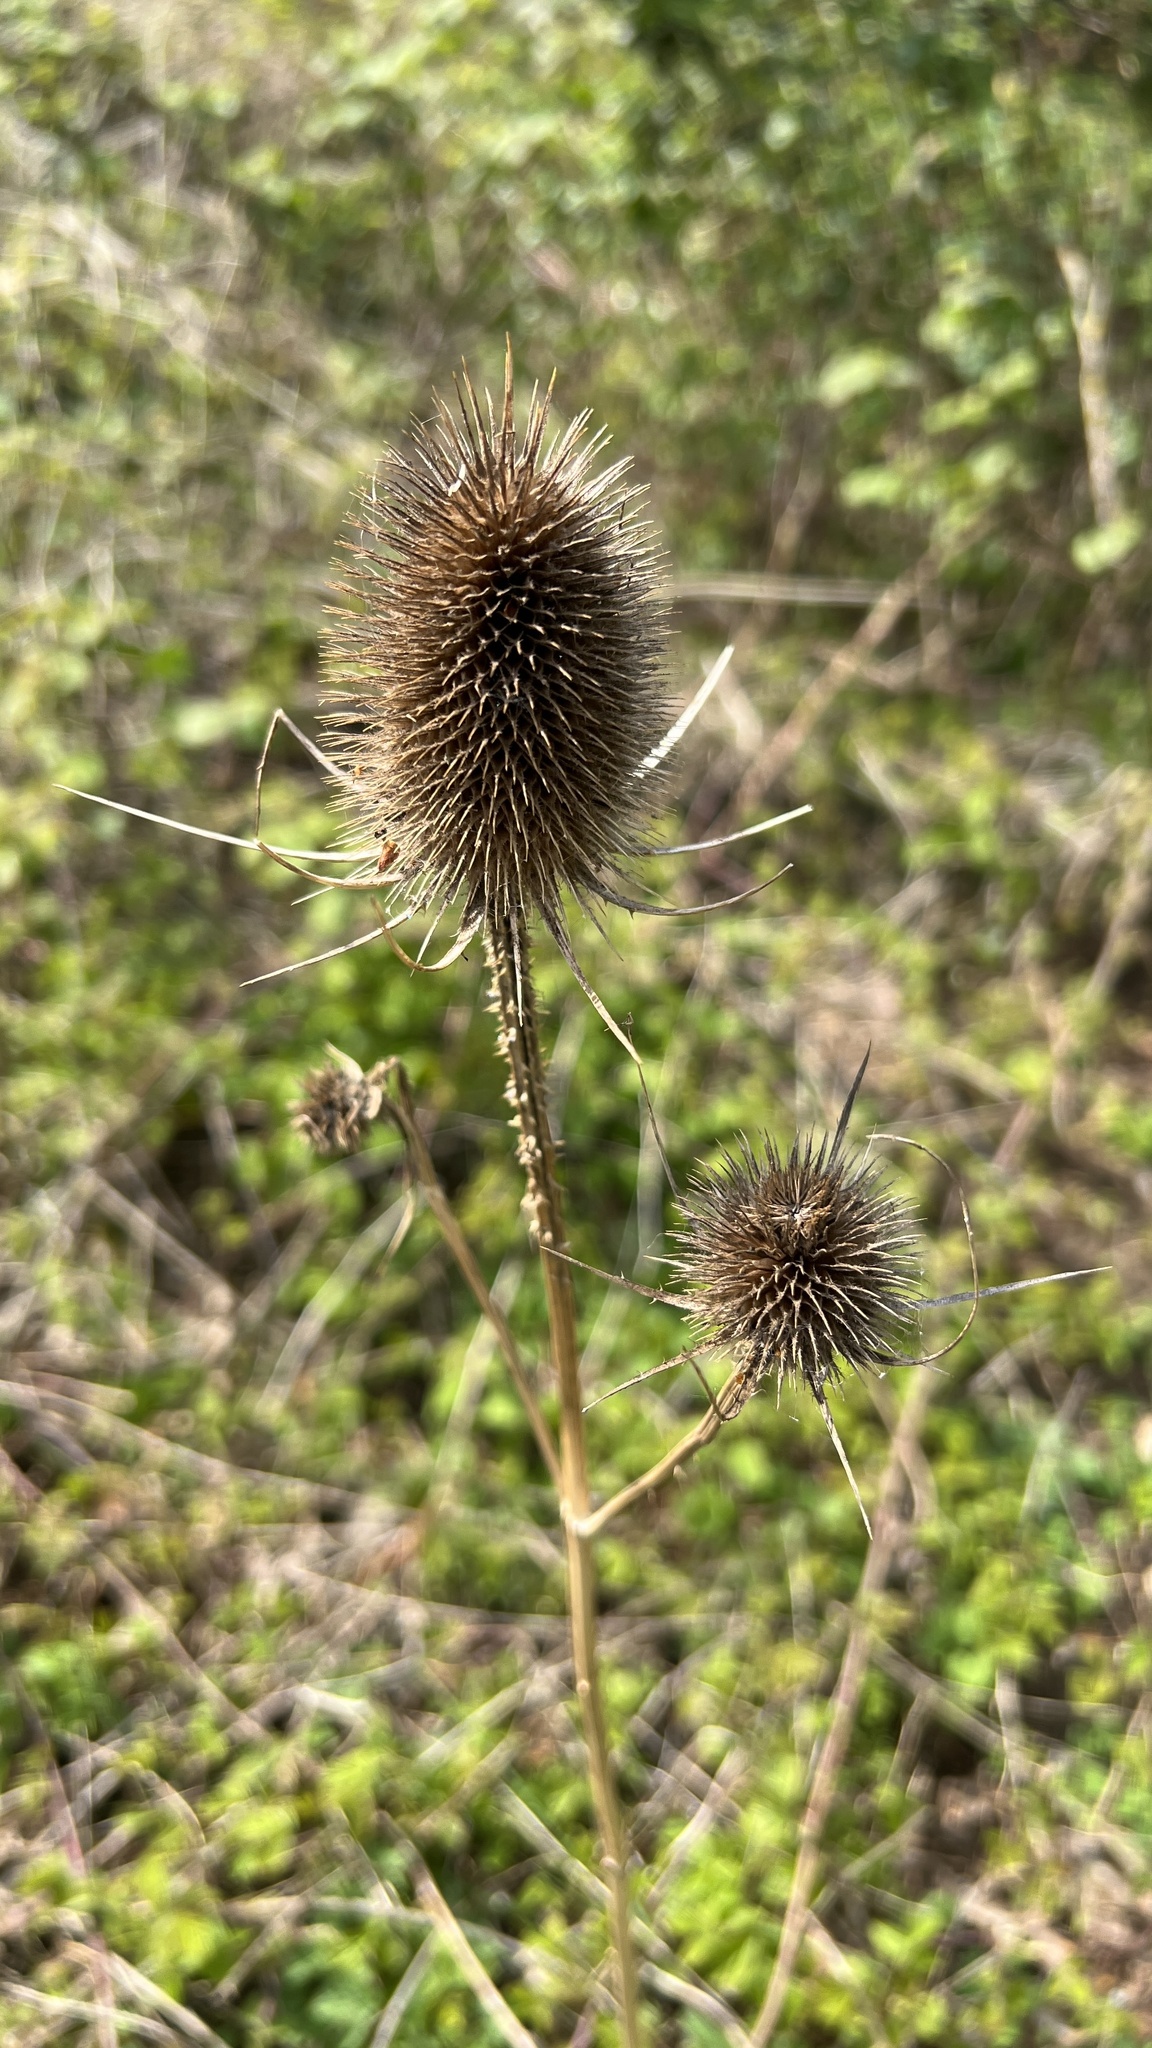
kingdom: Plantae
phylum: Tracheophyta
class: Magnoliopsida
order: Dipsacales
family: Caprifoliaceae
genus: Dipsacus
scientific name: Dipsacus fullonum
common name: Teasel
